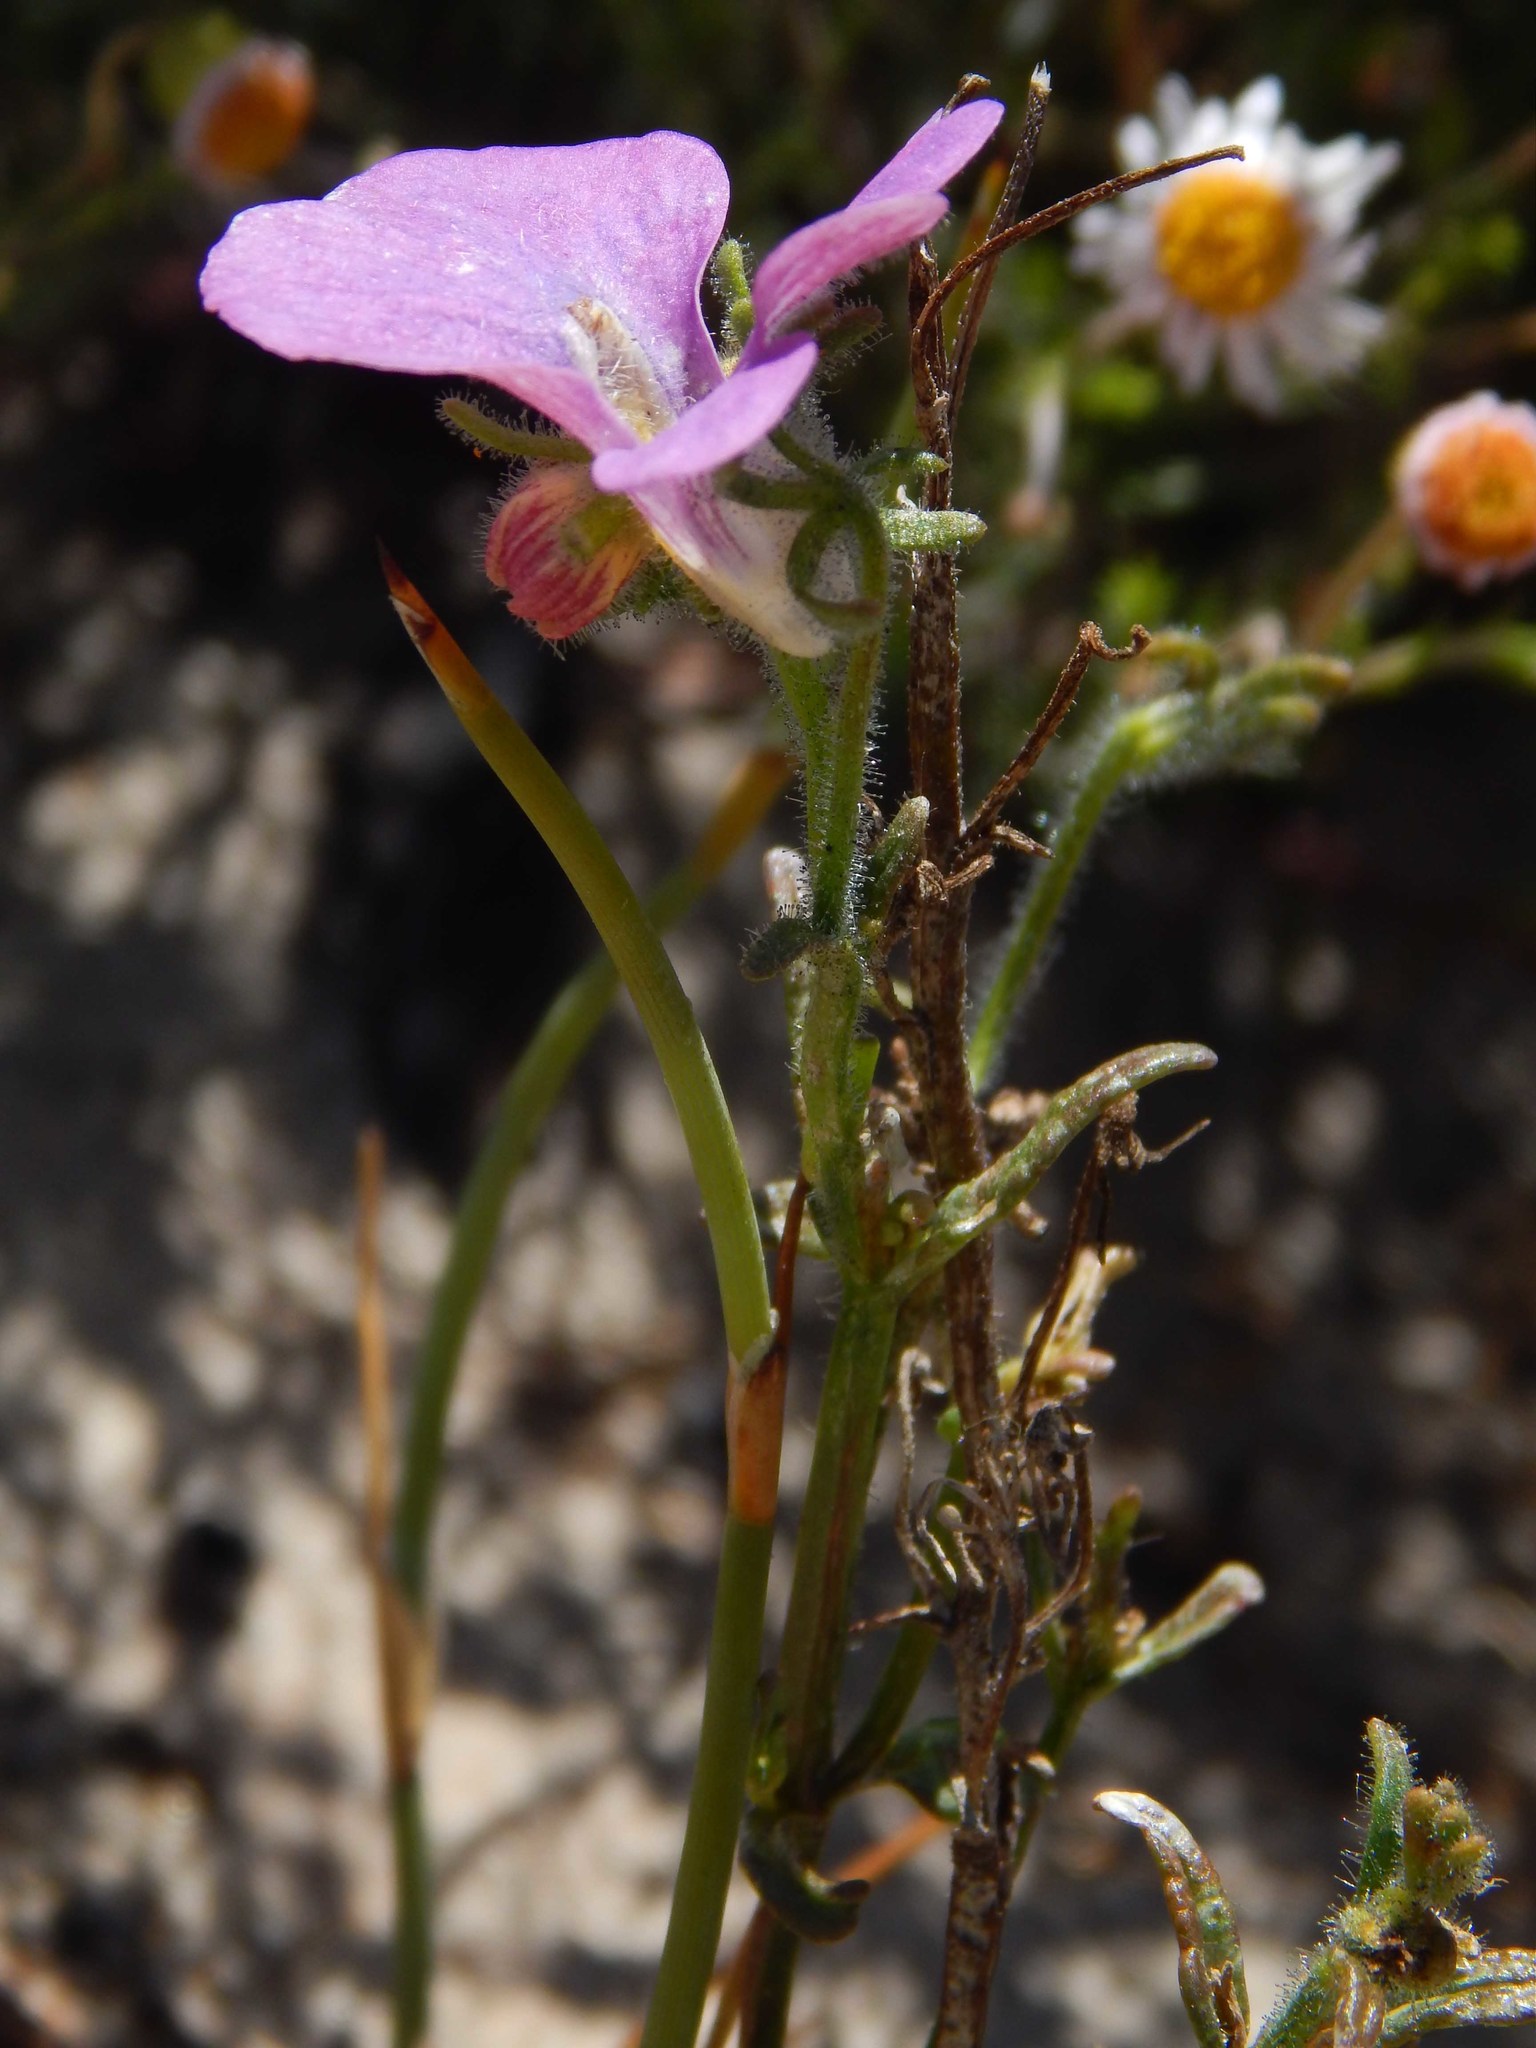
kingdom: Plantae
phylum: Tracheophyta
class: Magnoliopsida
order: Lamiales
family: Scrophulariaceae
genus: Nemesia
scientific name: Nemesia strumosa
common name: Cape-jewels
